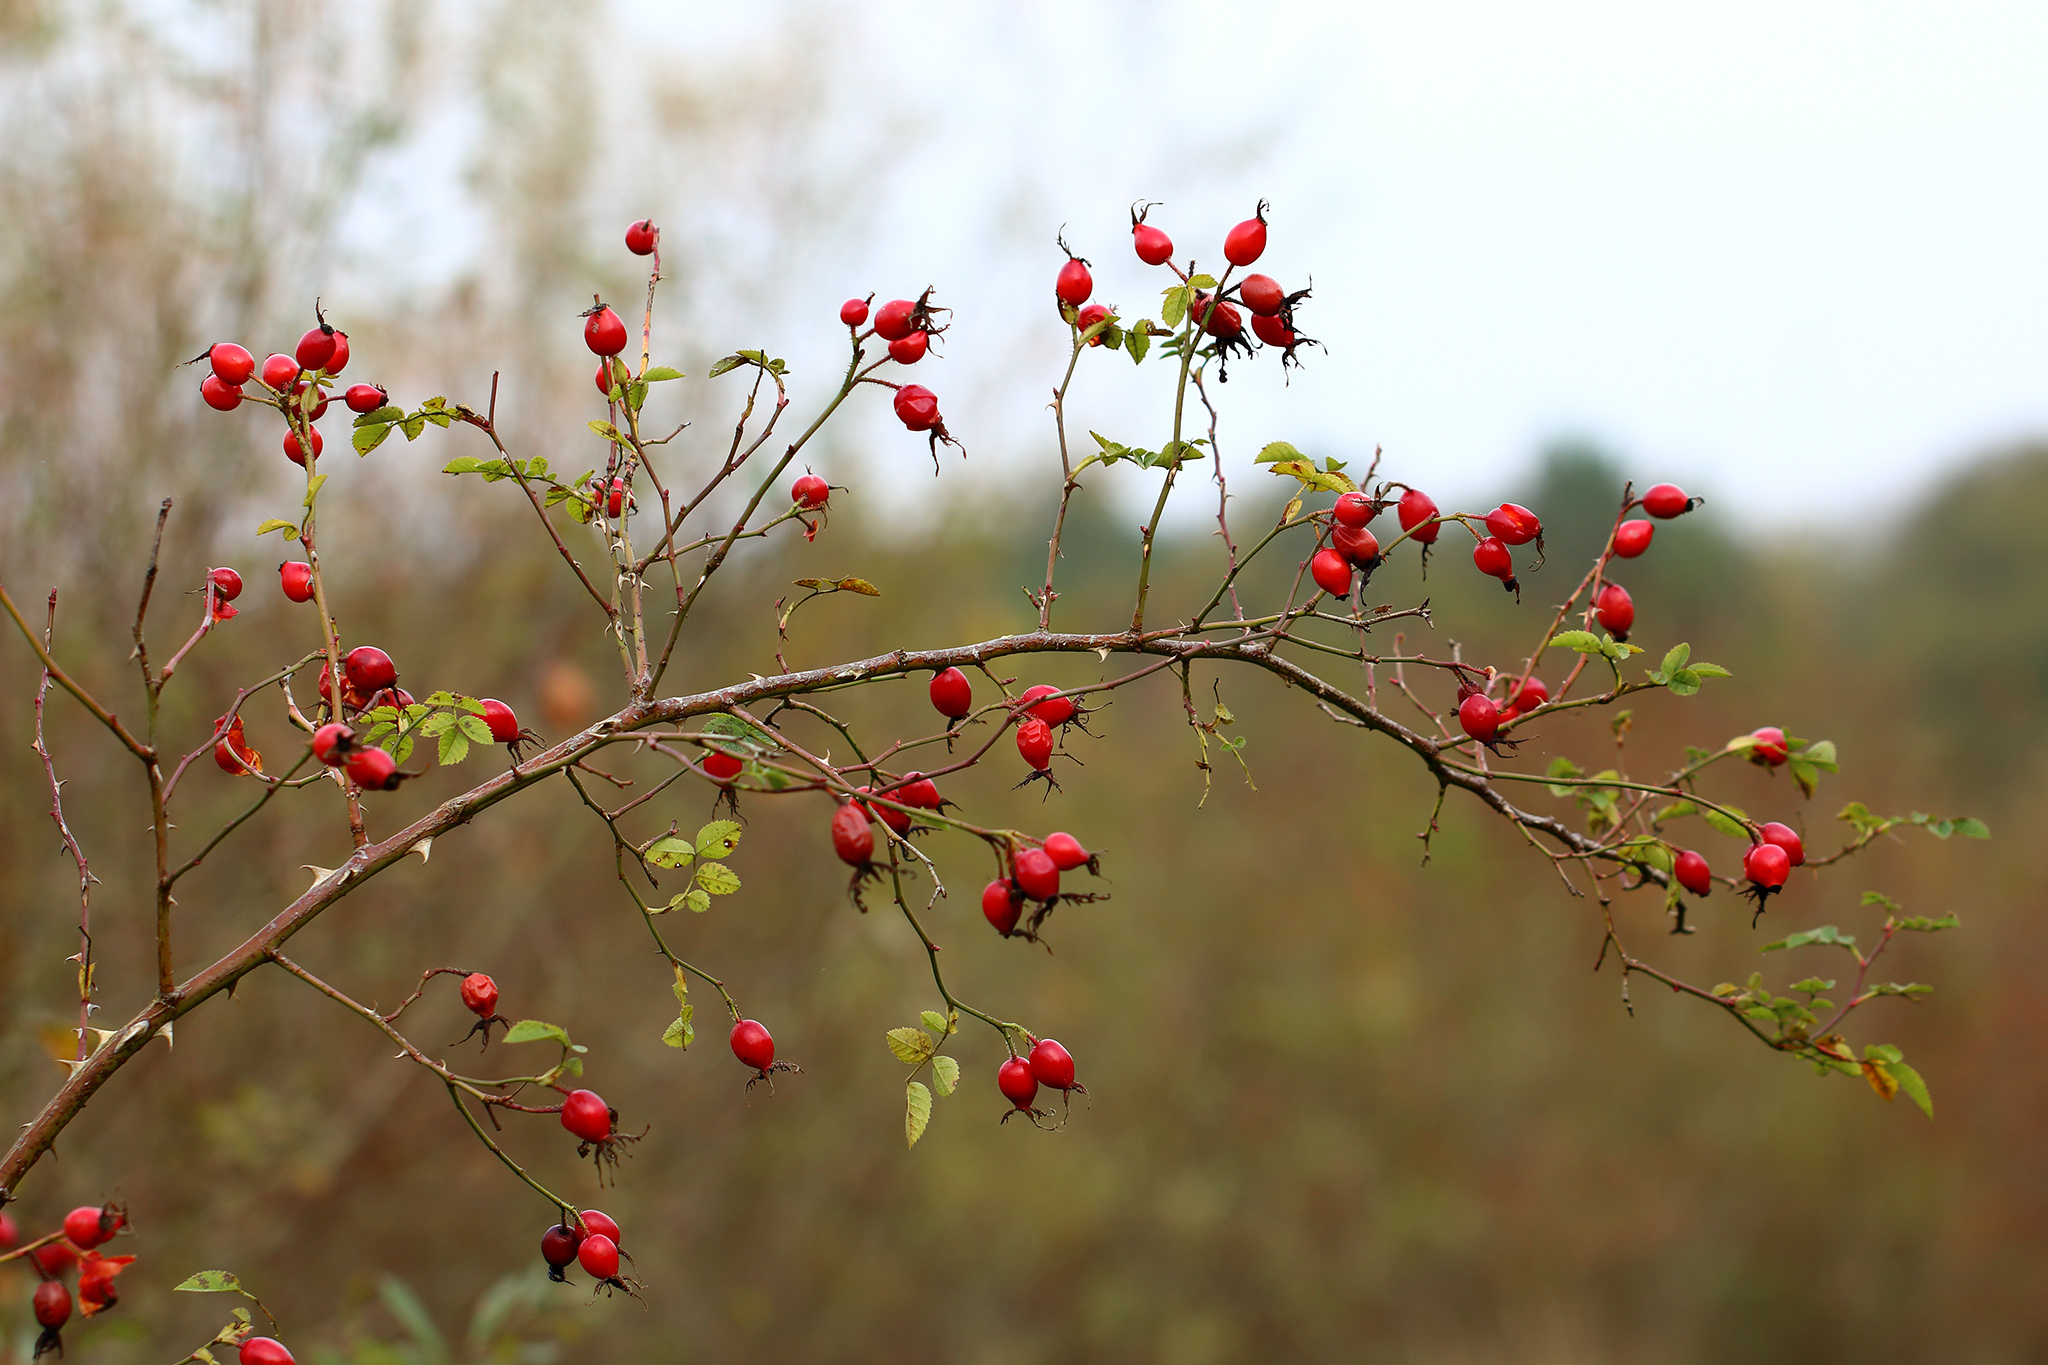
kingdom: Plantae
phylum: Tracheophyta
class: Magnoliopsida
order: Rosales
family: Rosaceae
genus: Rosa
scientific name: Rosa rubiginosa
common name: Sweet-briar
